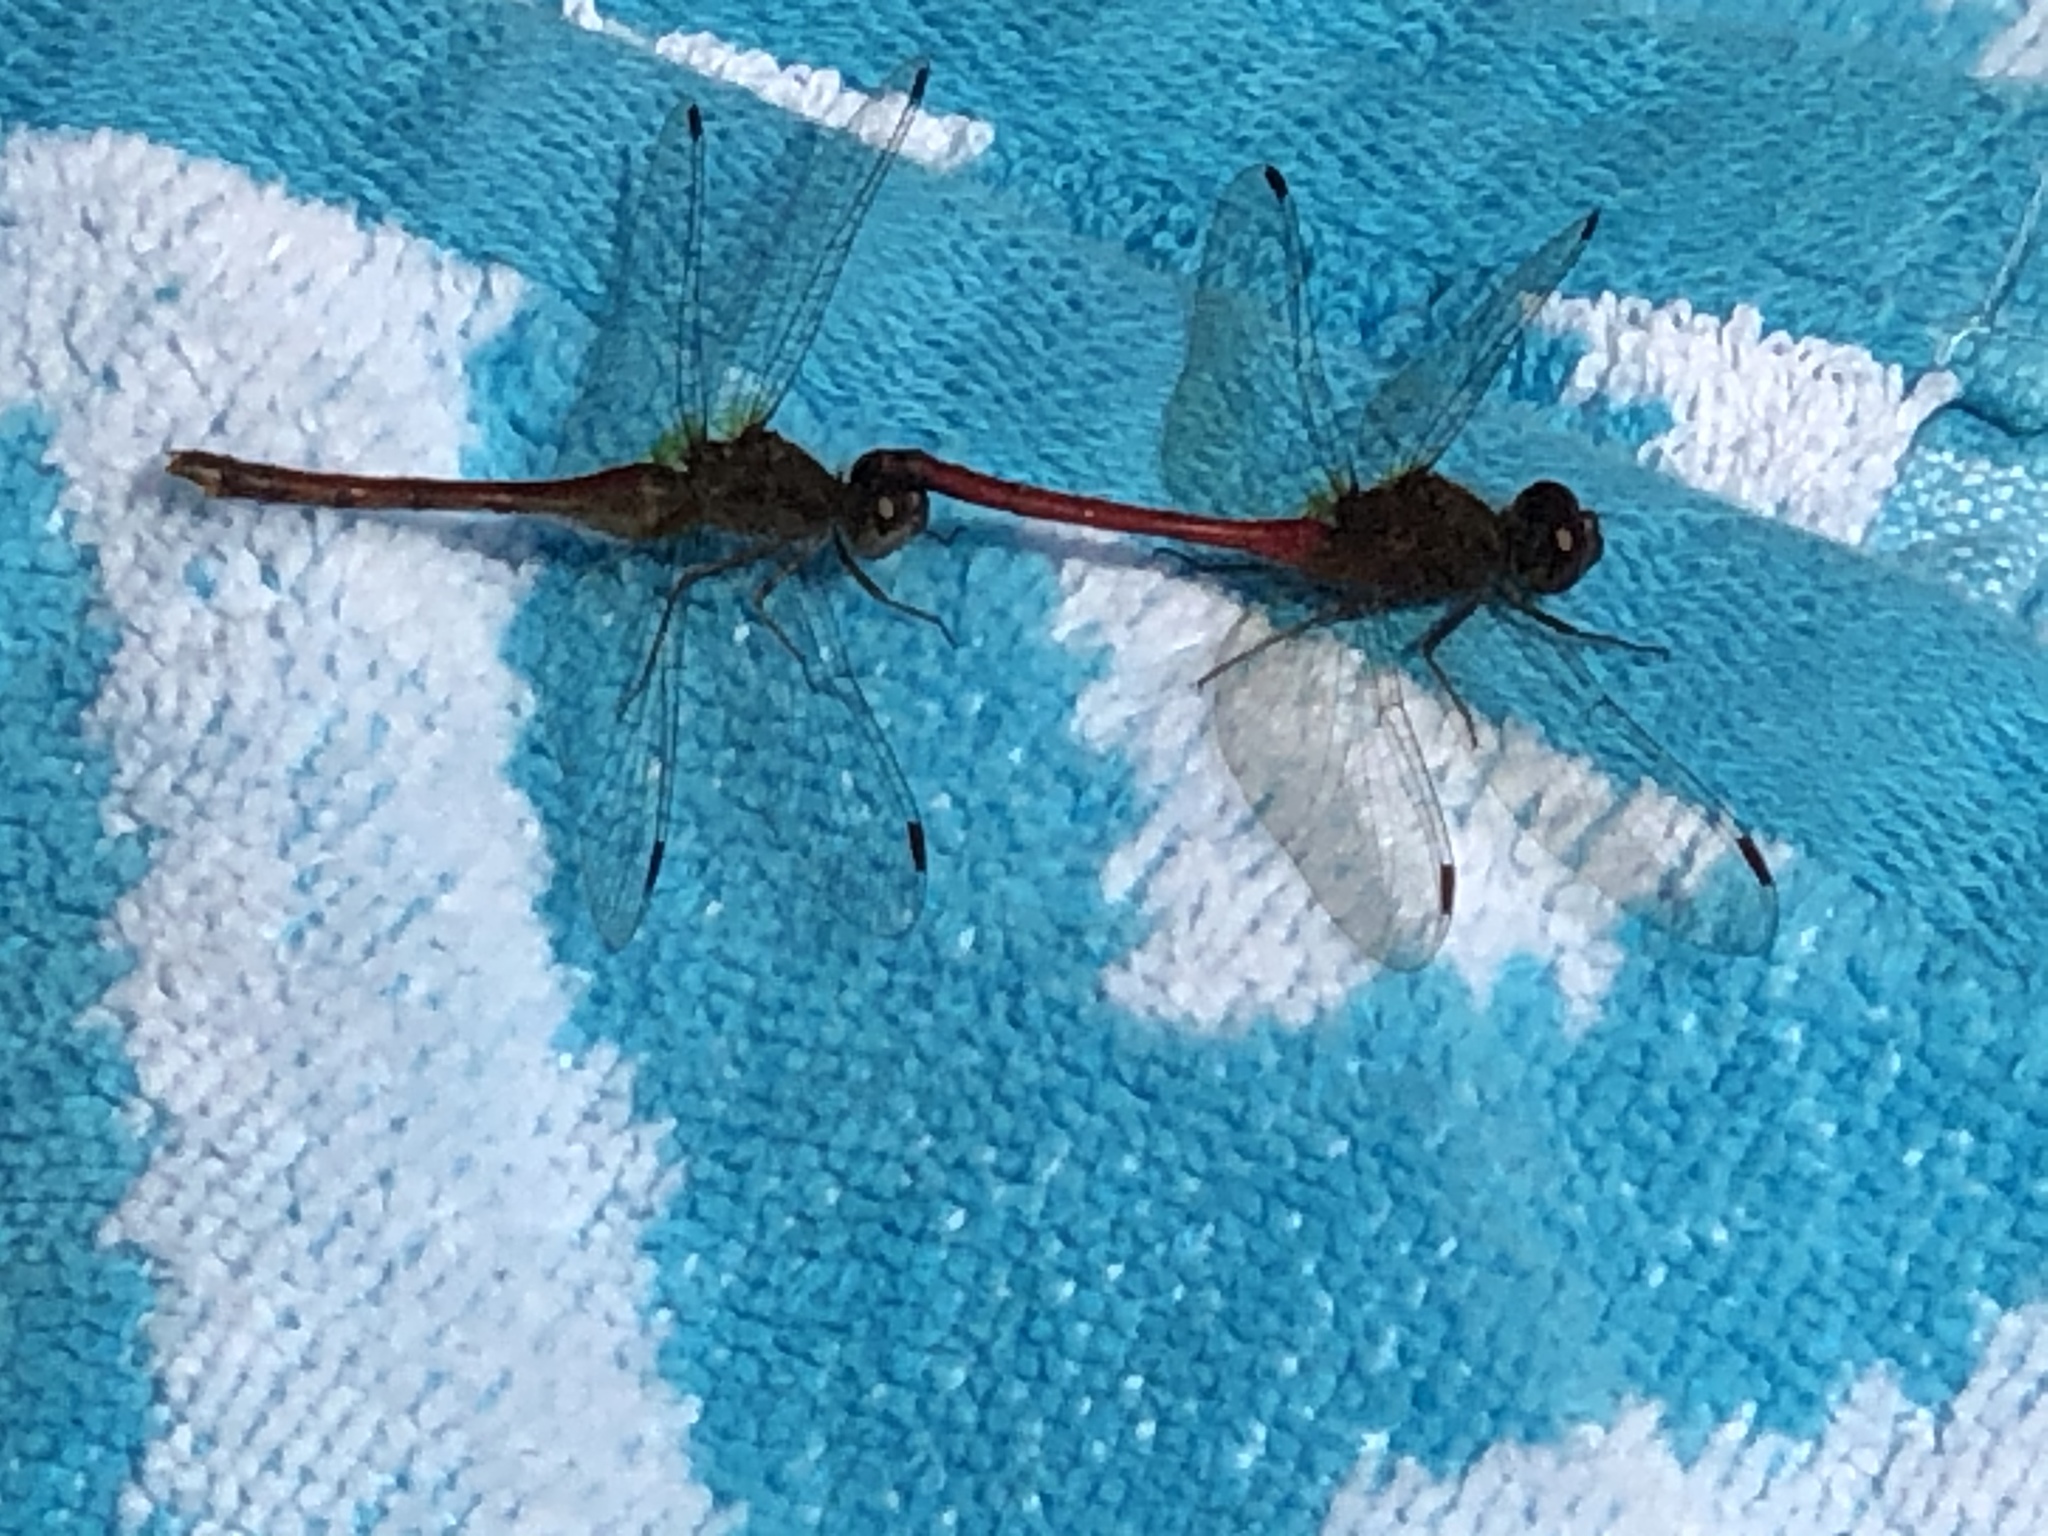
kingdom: Animalia
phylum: Arthropoda
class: Insecta
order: Odonata
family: Libellulidae
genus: Sympetrum
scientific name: Sympetrum vicinum
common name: Autumn meadowhawk
